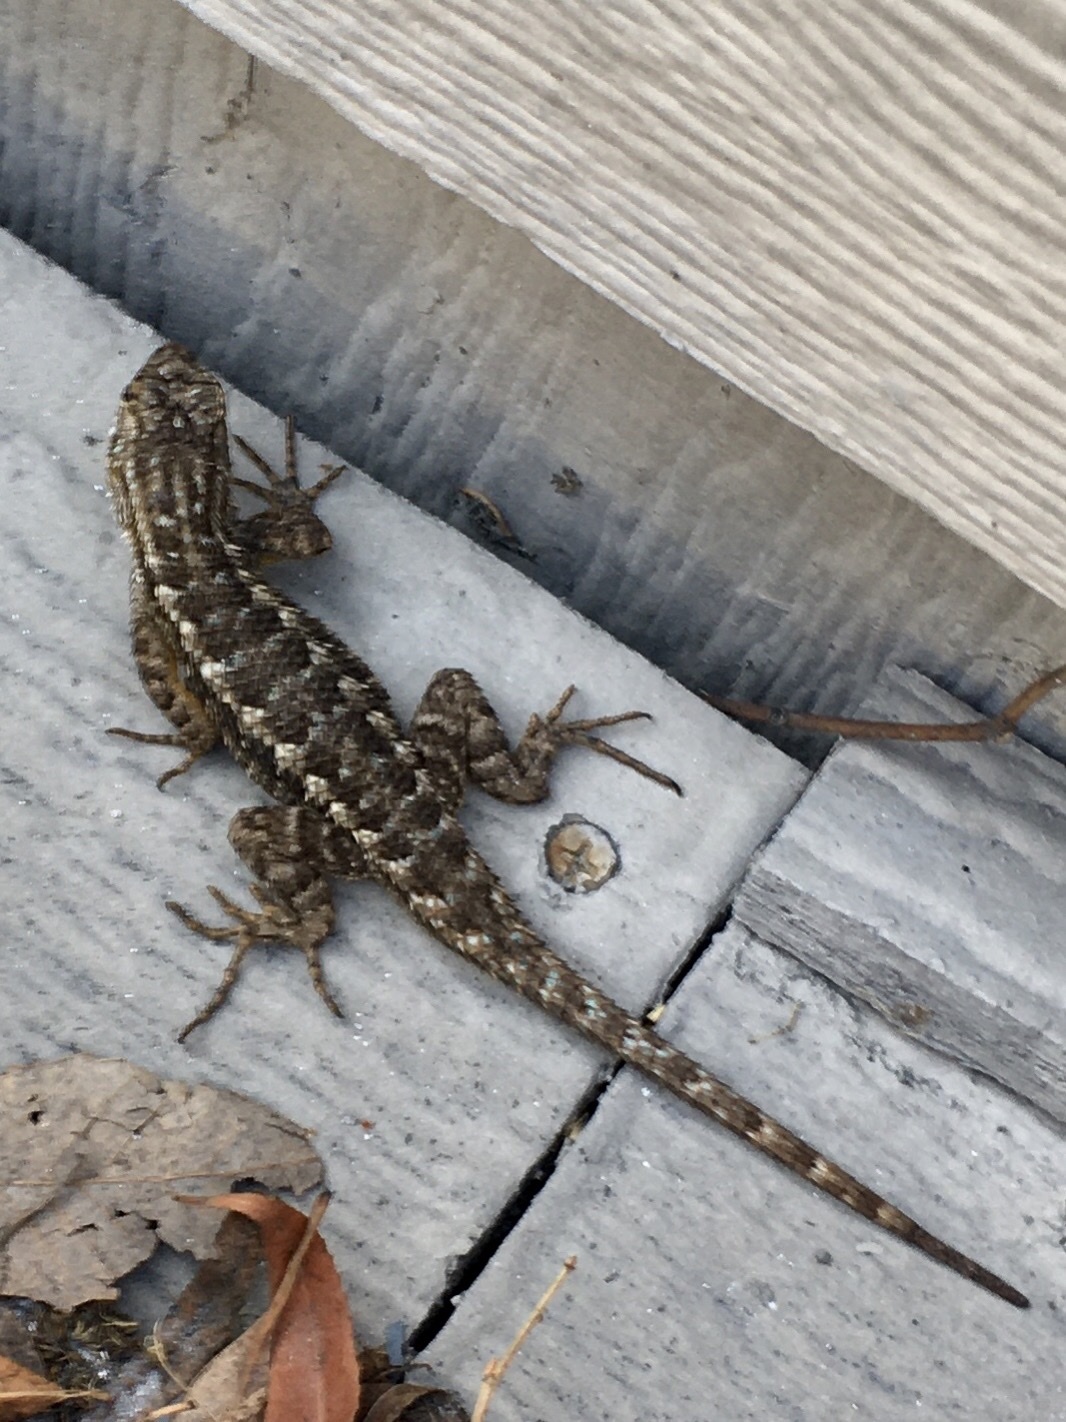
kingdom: Animalia
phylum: Chordata
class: Squamata
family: Phrynosomatidae
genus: Sceloporus
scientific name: Sceloporus occidentalis
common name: Western fence lizard
